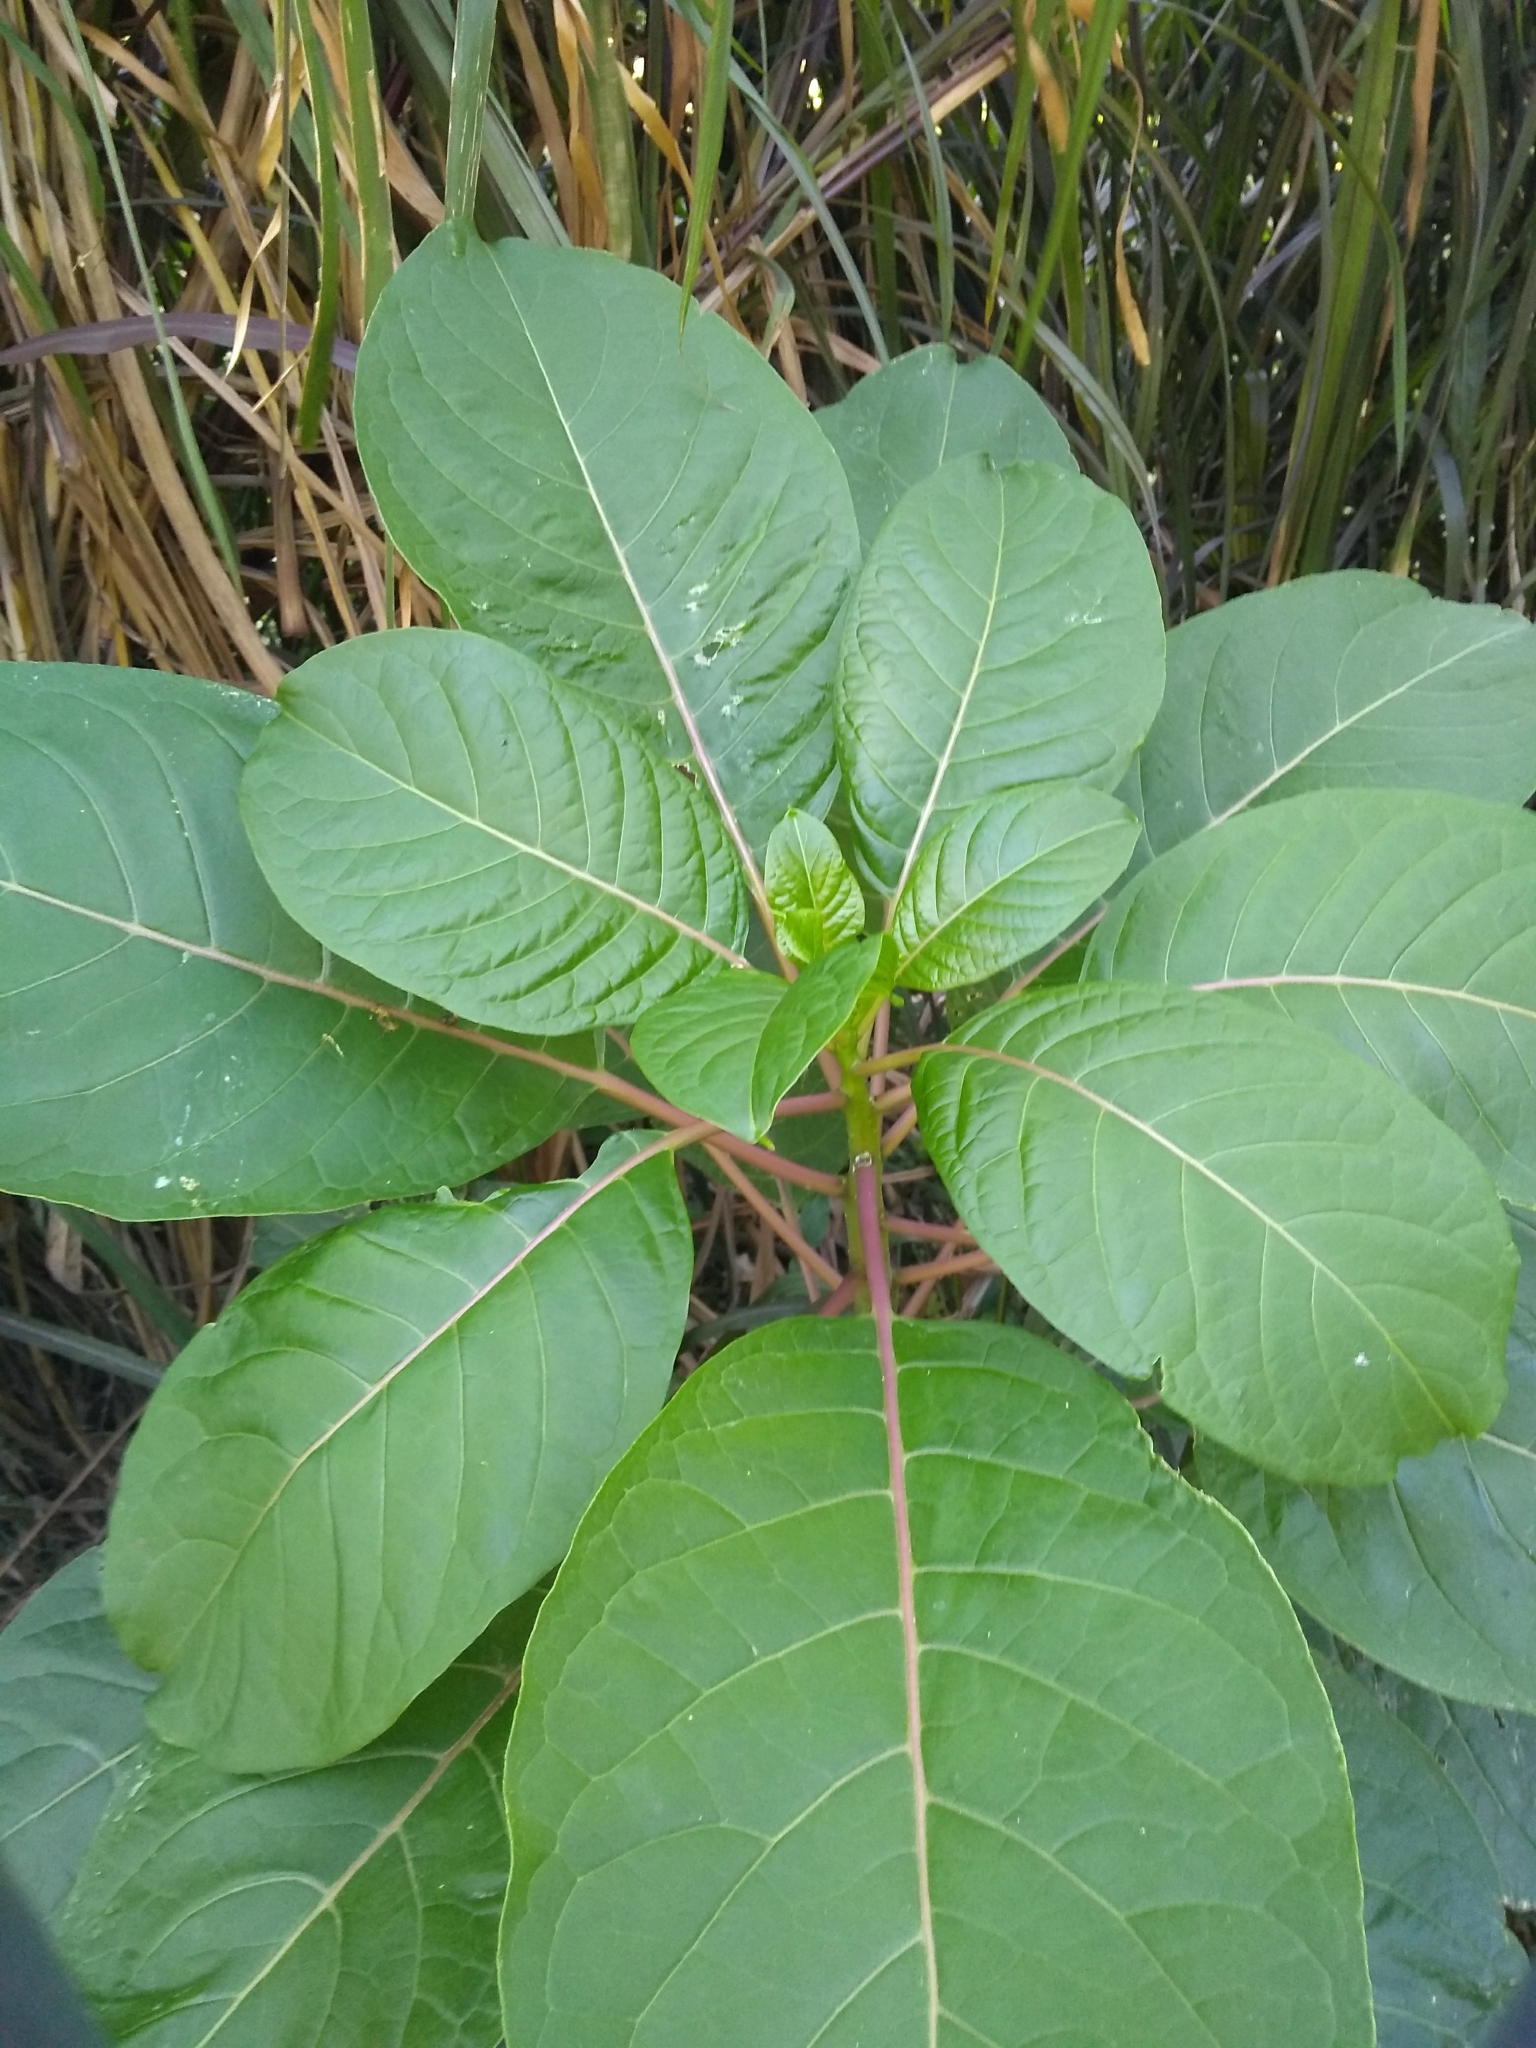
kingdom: Plantae
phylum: Tracheophyta
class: Magnoliopsida
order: Caryophyllales
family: Phytolaccaceae
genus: Phytolacca
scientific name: Phytolacca dioica
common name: Pokeweed
